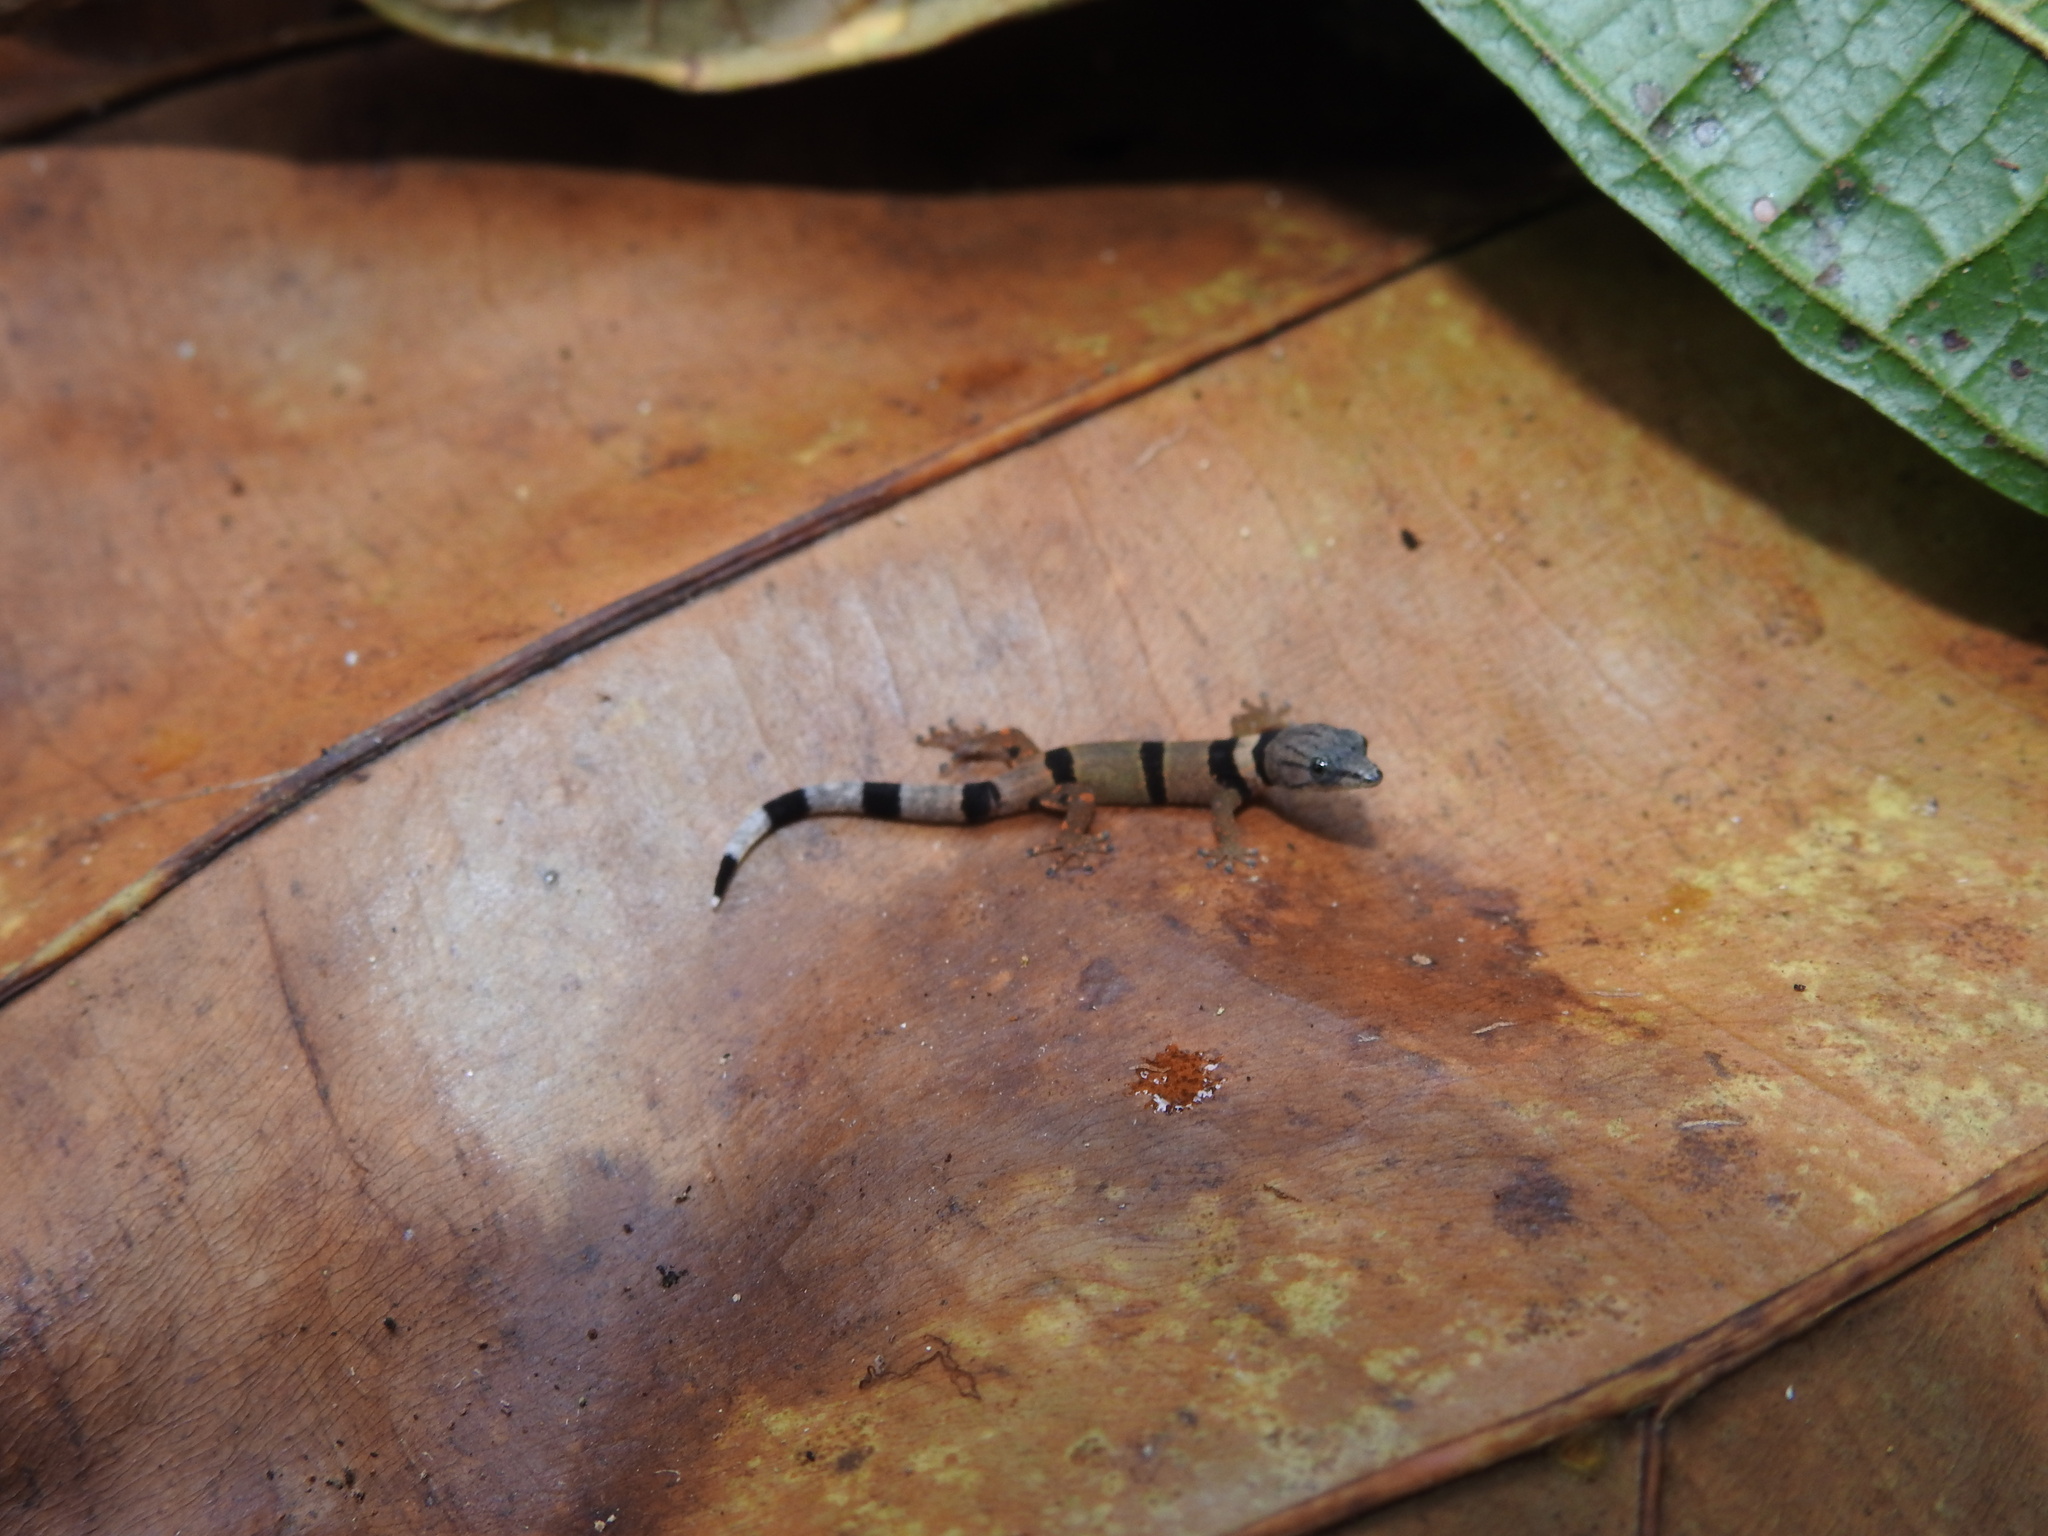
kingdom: Animalia
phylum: Chordata
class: Squamata
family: Sphaerodactylidae
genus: Sphaerodactylus
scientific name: Sphaerodactylus homolepis
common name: Caribbean least gecko
